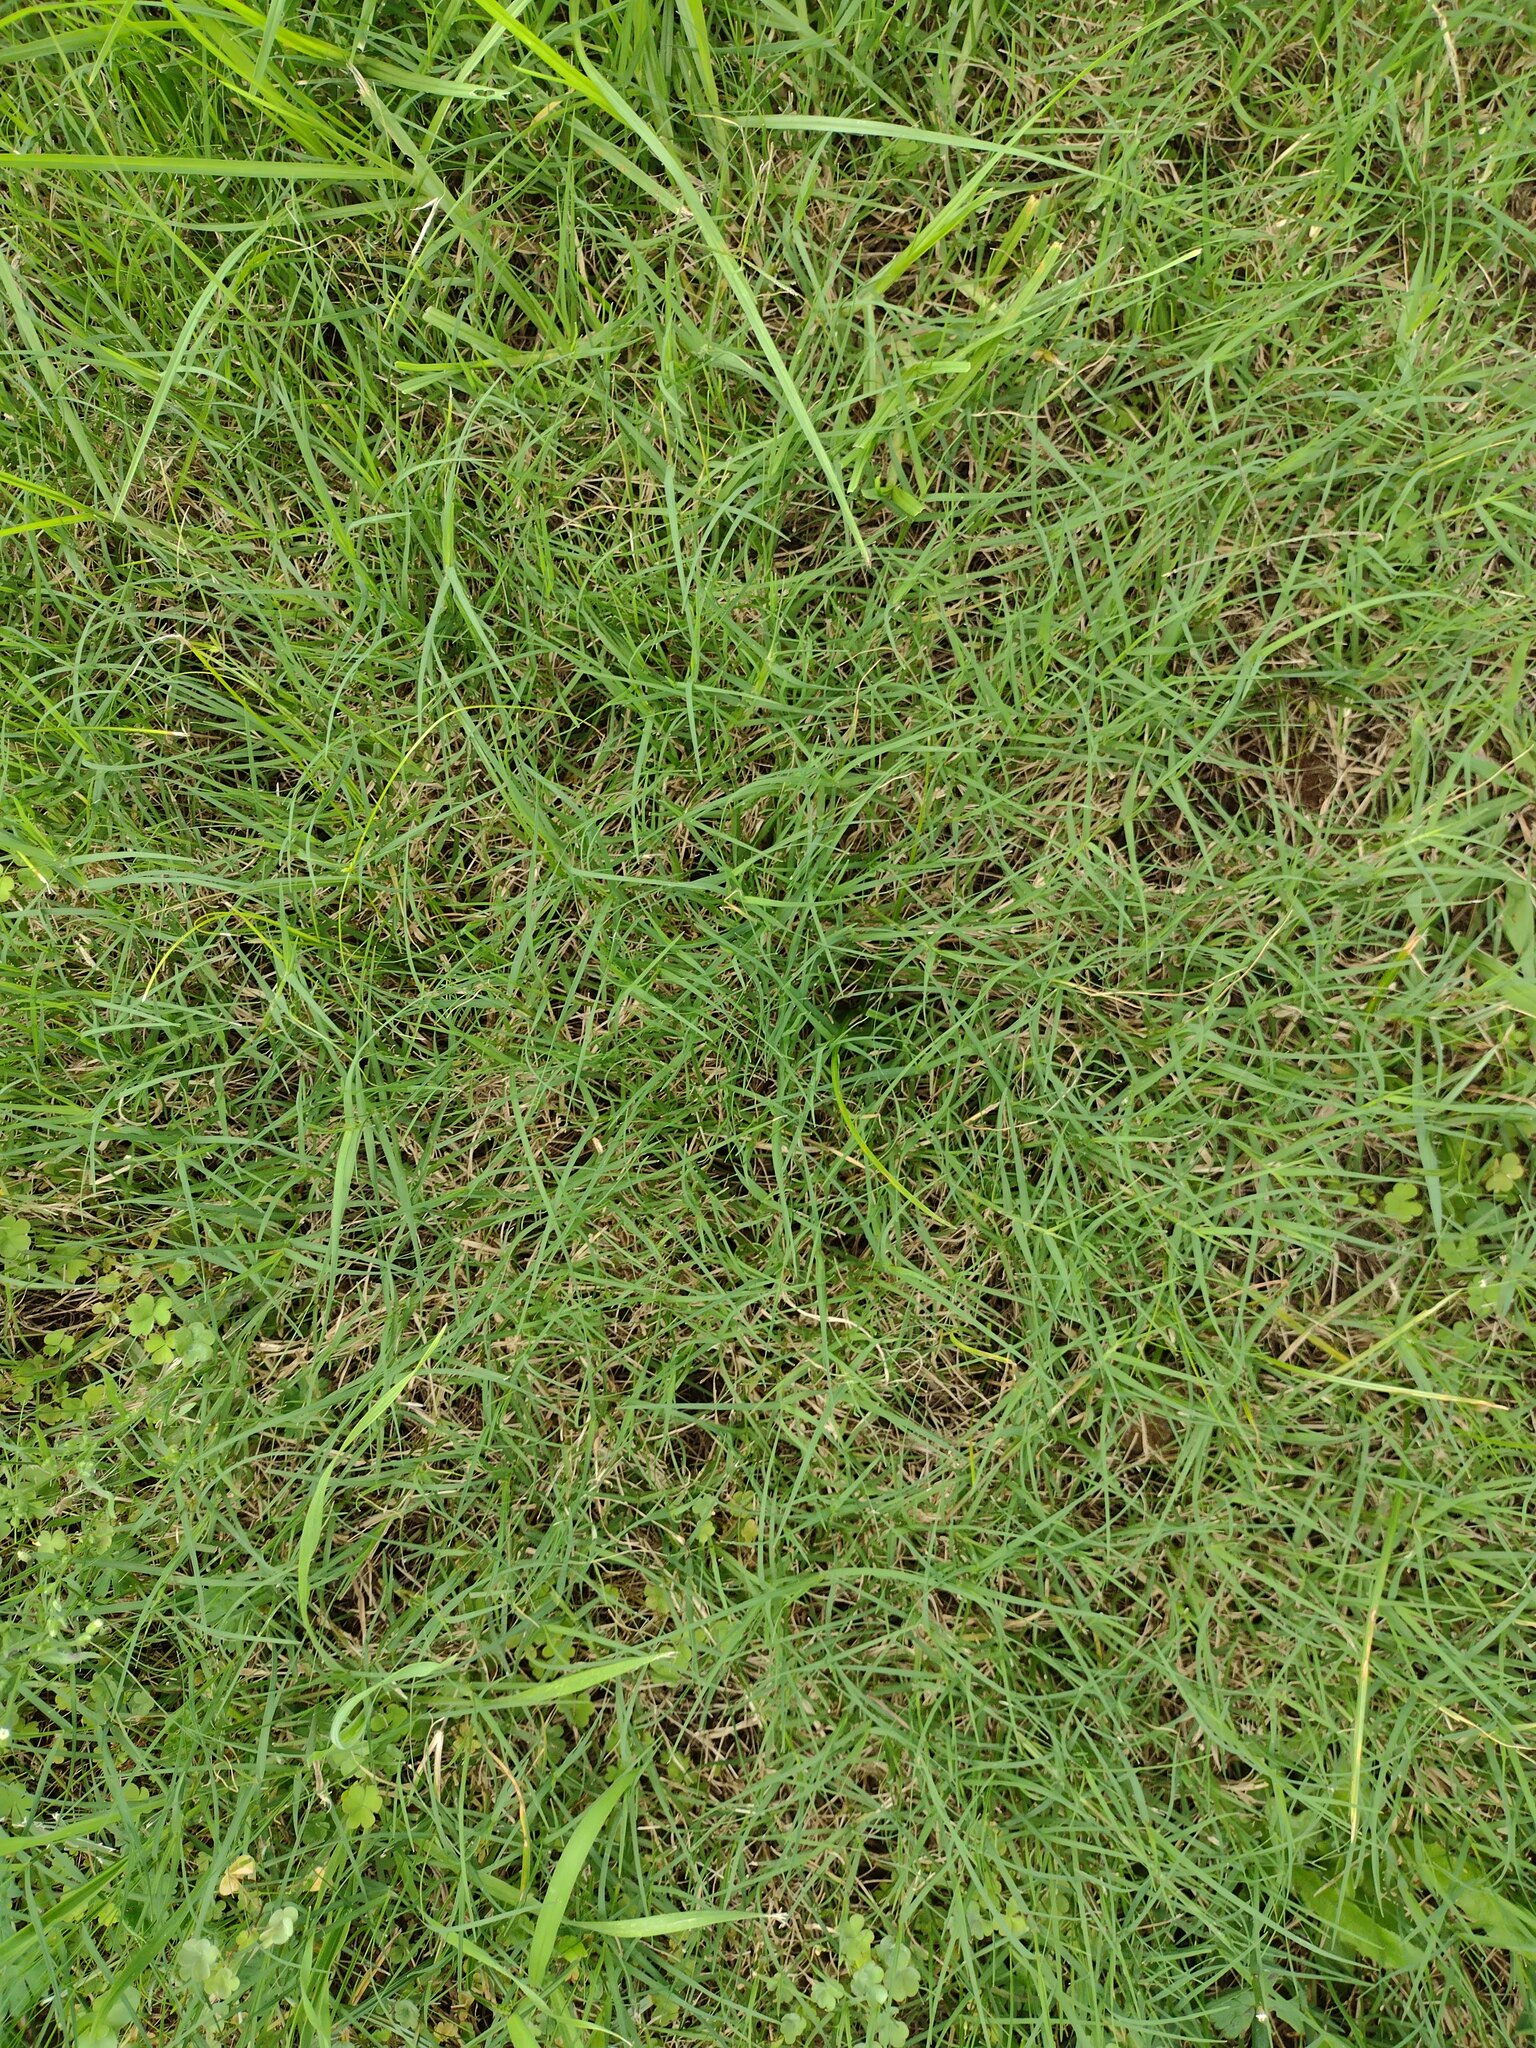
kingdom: Plantae
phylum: Tracheophyta
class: Liliopsida
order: Poales
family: Poaceae
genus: Cynodon
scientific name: Cynodon dactylon
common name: Bermuda grass
